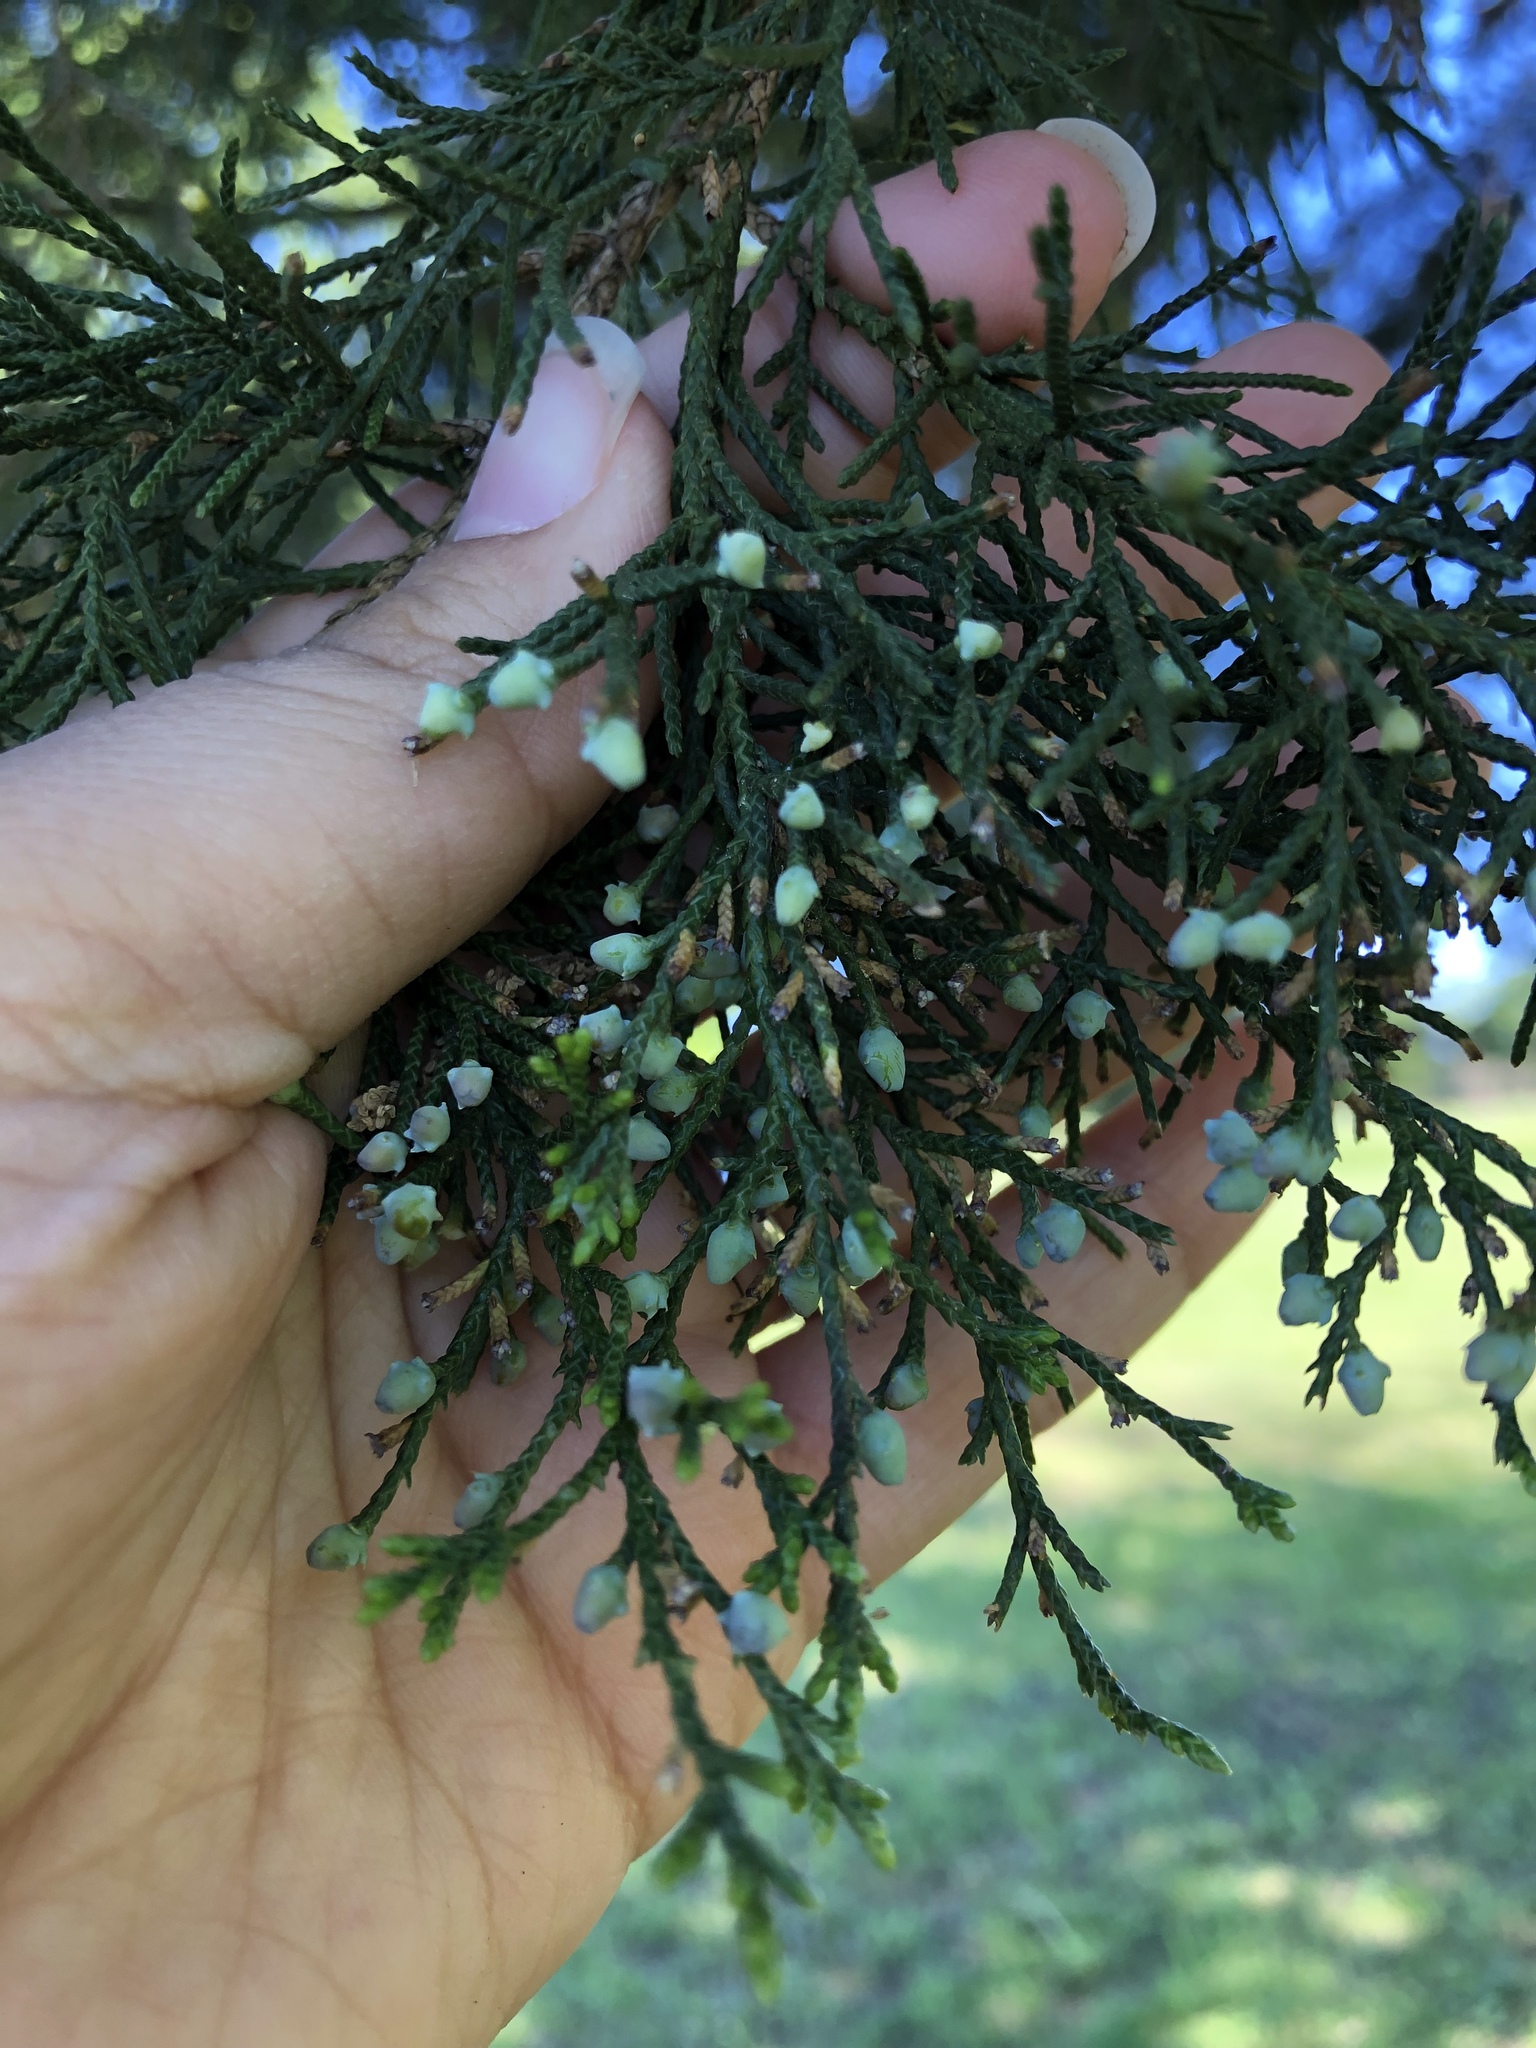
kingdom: Plantae
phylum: Tracheophyta
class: Pinopsida
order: Pinales
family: Cupressaceae
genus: Juniperus
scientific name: Juniperus virginiana
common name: Red juniper
